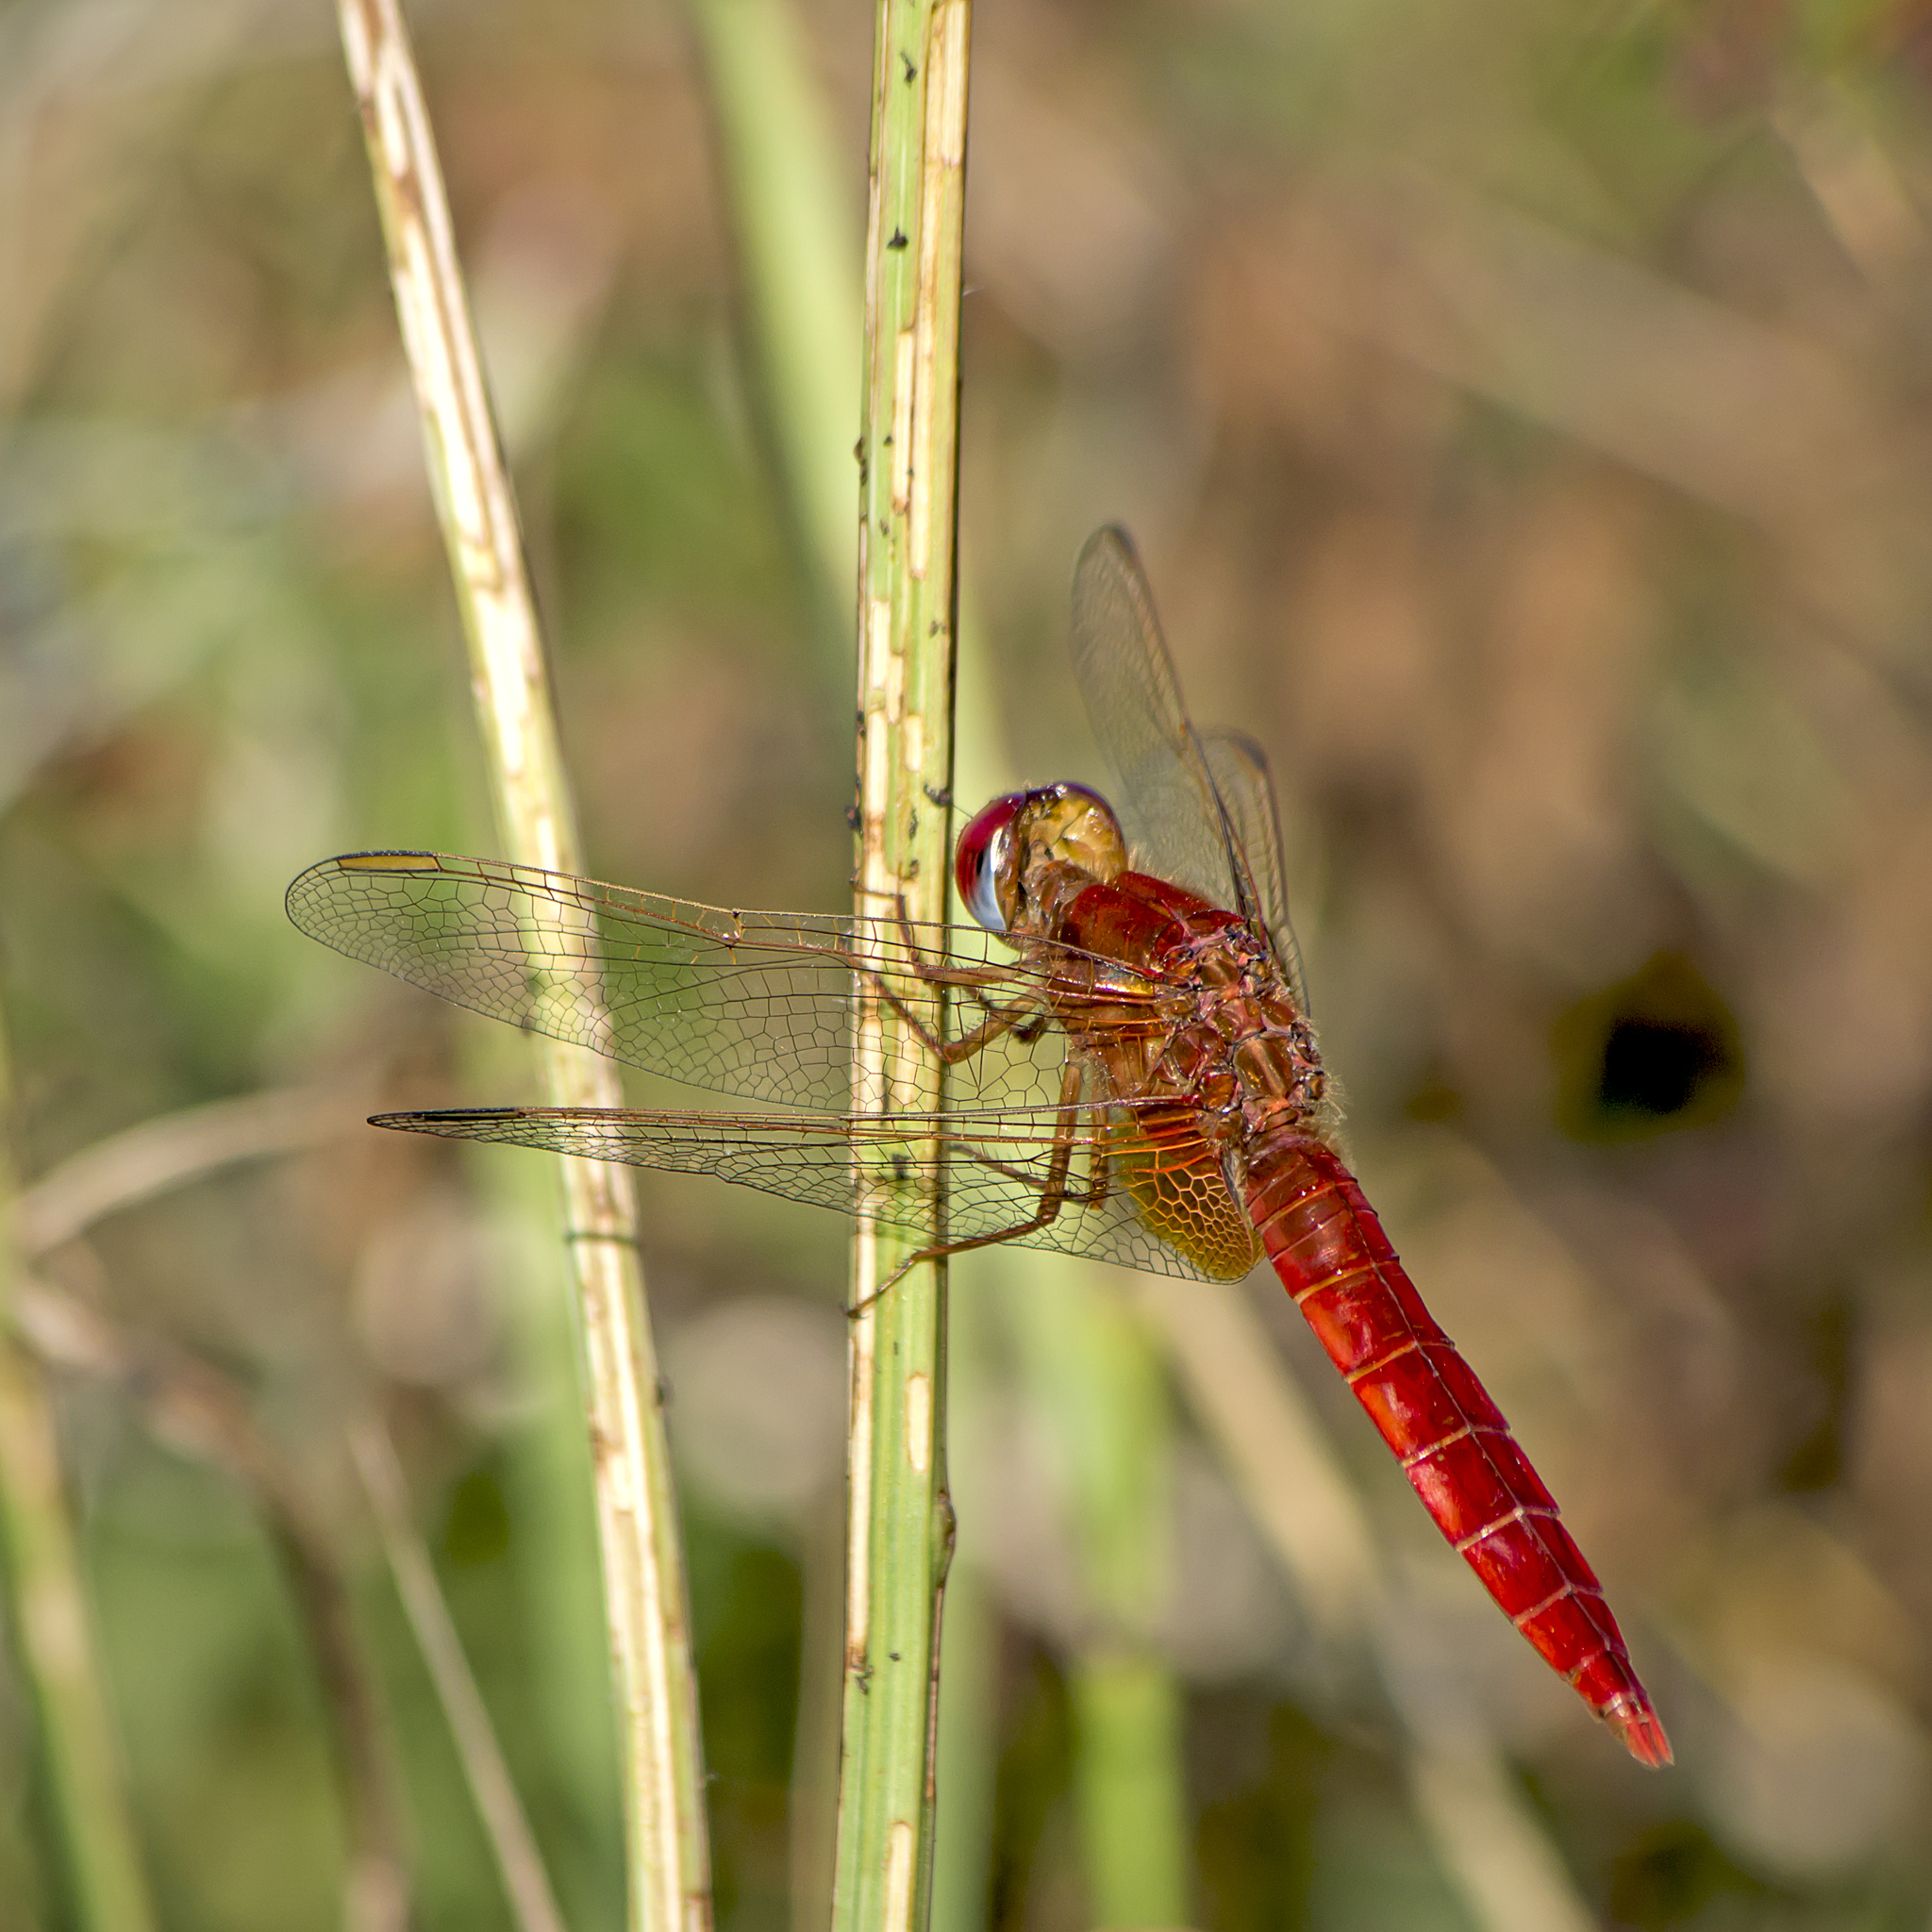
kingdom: Animalia
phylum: Arthropoda
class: Insecta
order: Odonata
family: Libellulidae
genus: Crocothemis
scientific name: Crocothemis erythraea
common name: Scarlet dragonfly
